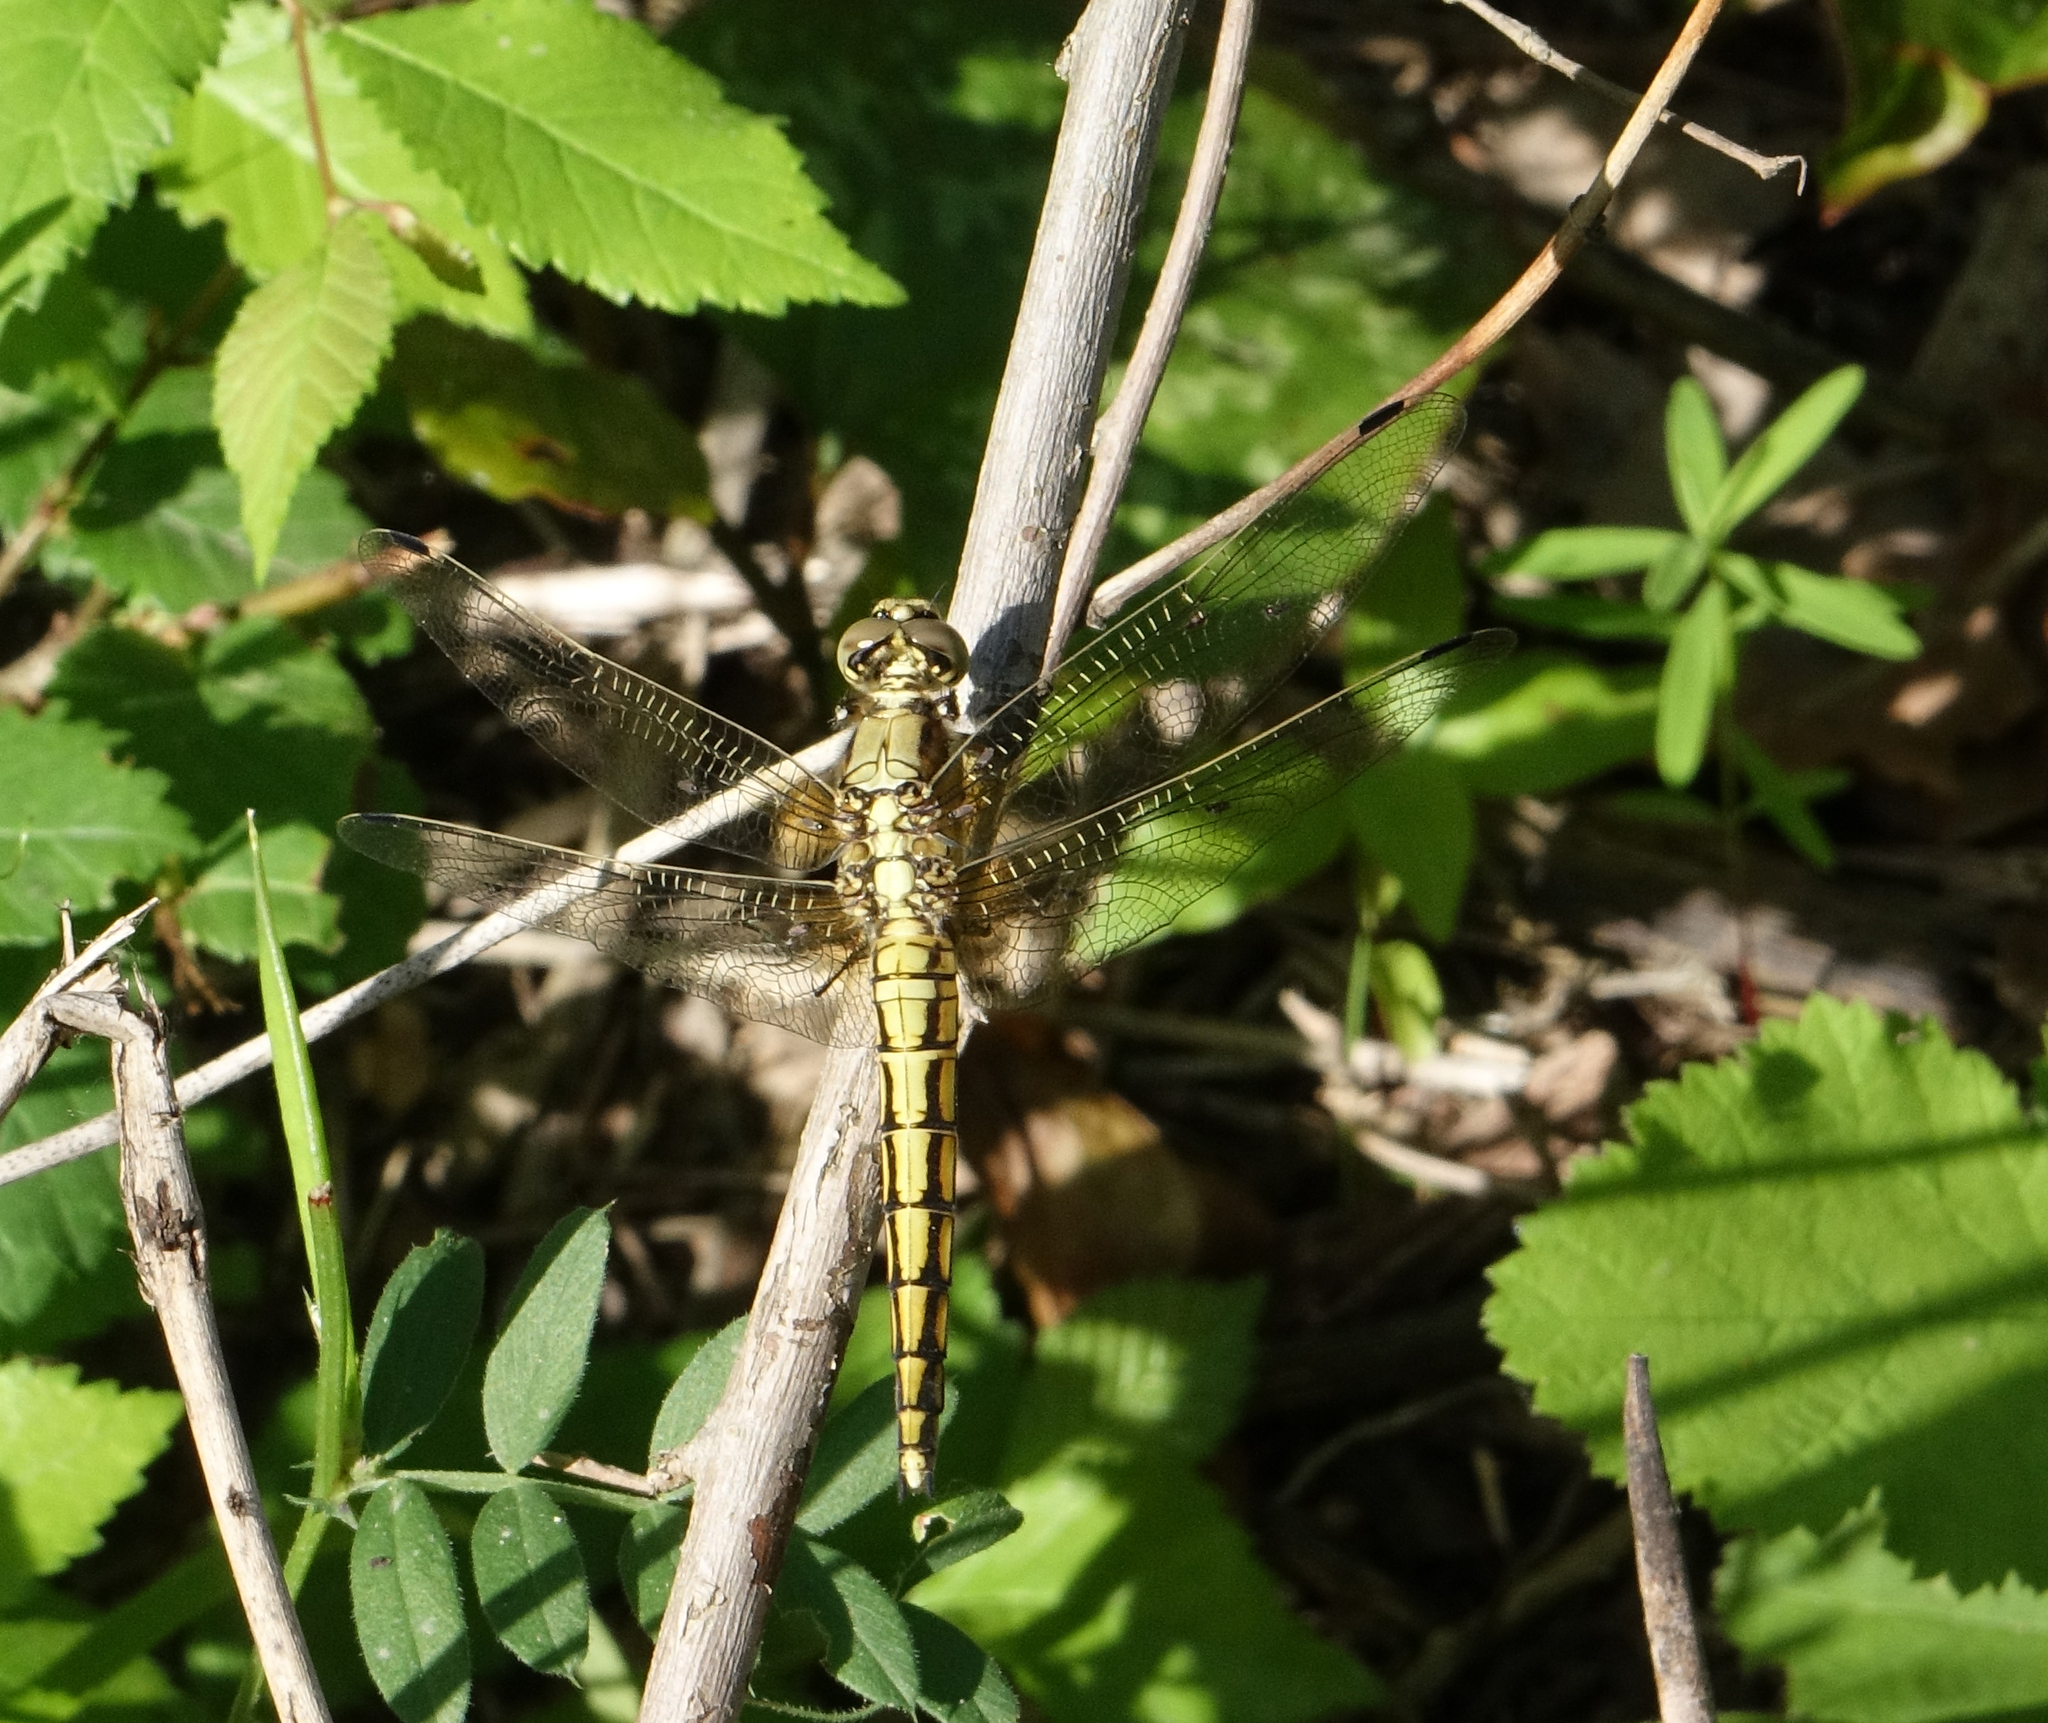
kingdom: Animalia
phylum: Arthropoda
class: Insecta
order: Odonata
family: Libellulidae
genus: Orthetrum
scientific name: Orthetrum cancellatum
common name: Black-tailed skimmer
